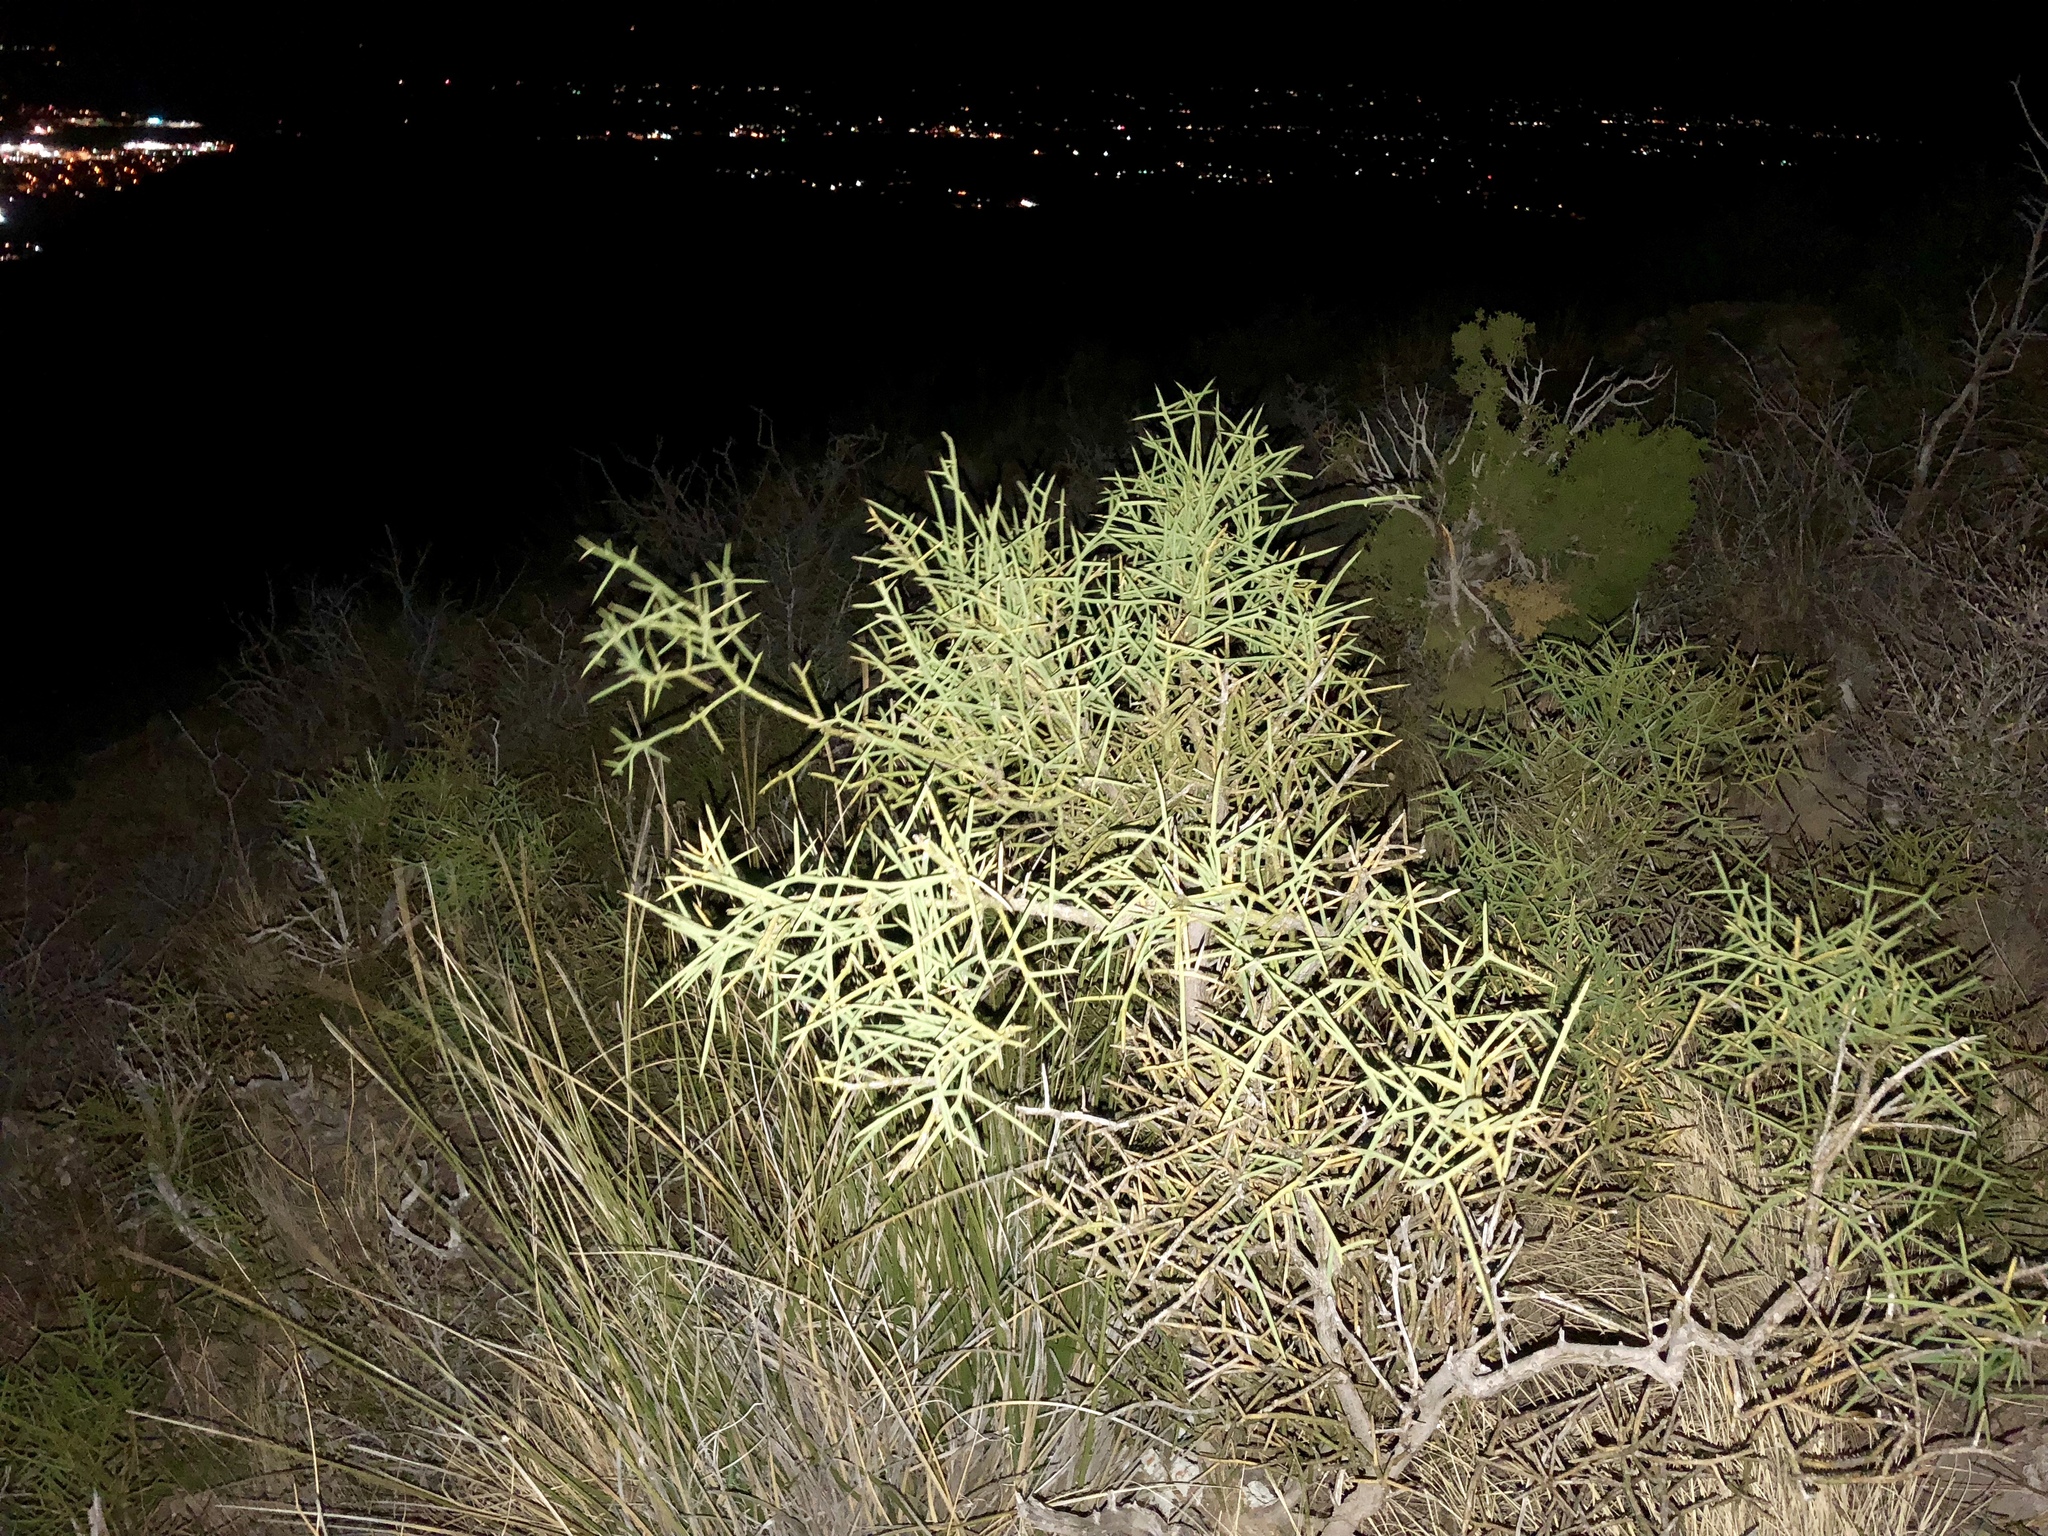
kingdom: Plantae
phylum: Tracheophyta
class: Magnoliopsida
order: Brassicales
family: Koeberliniaceae
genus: Koeberlinia
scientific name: Koeberlinia spinosa
